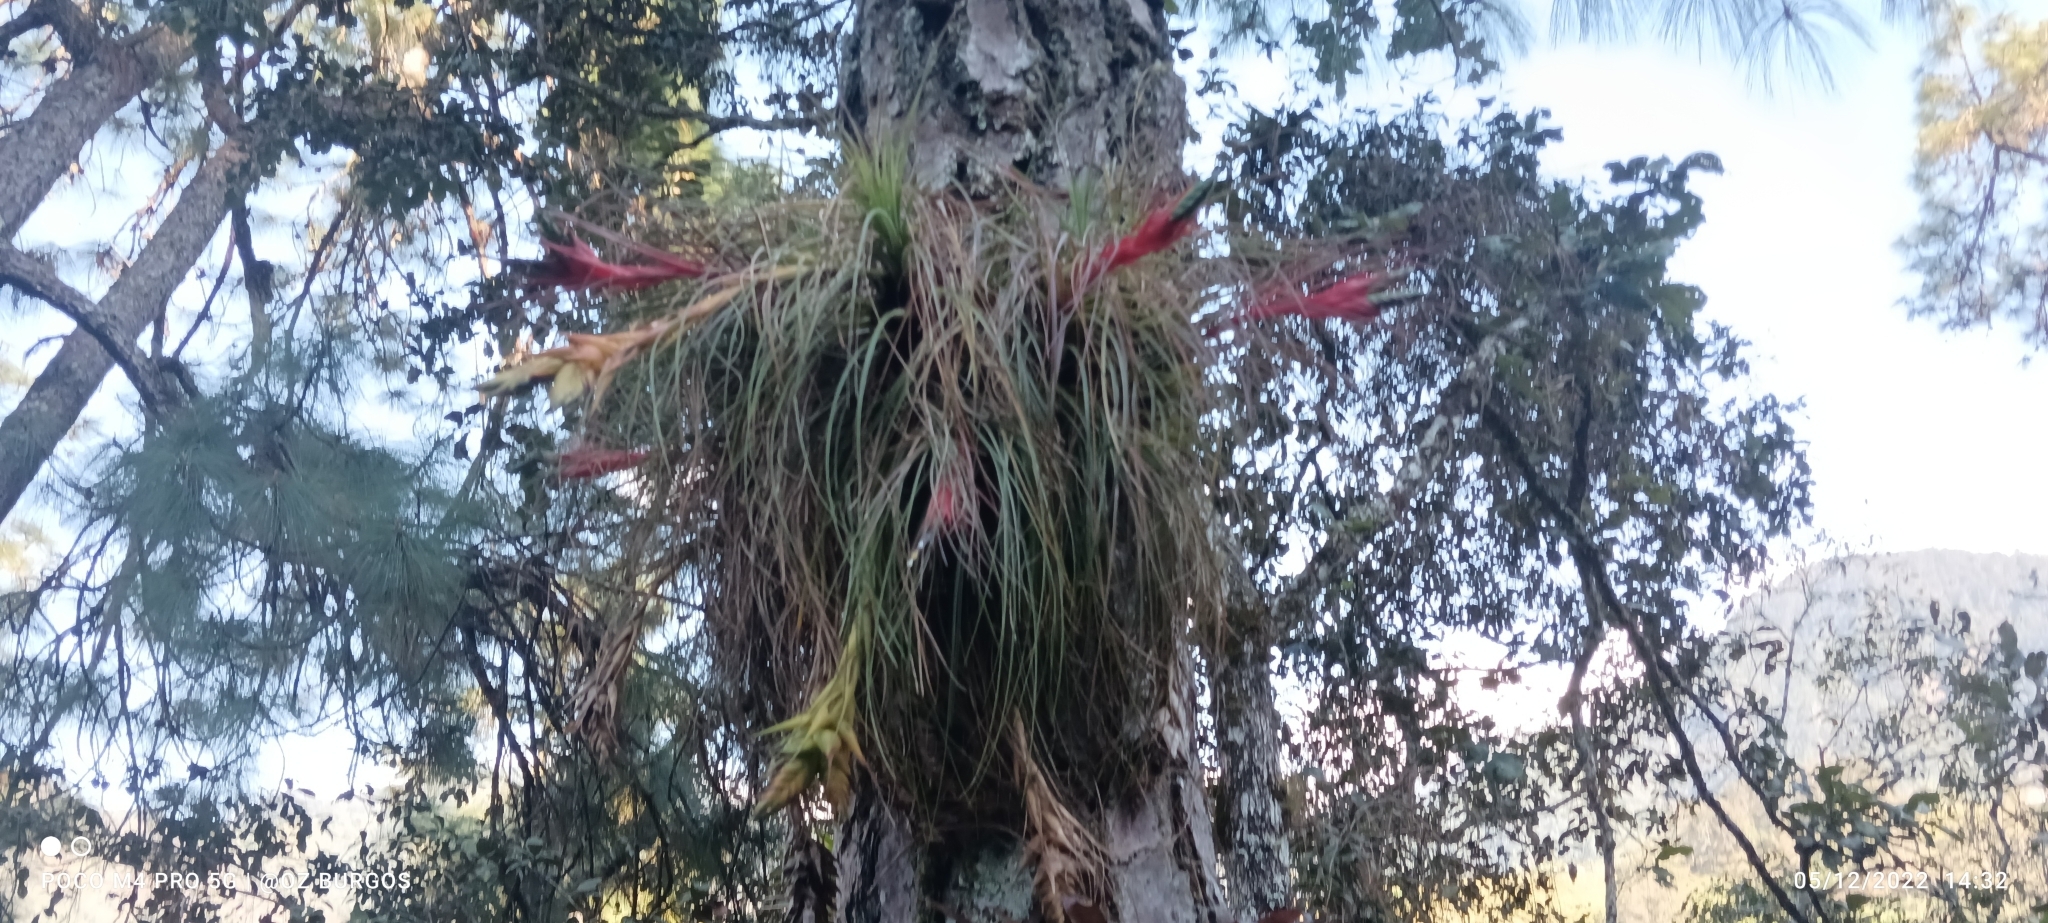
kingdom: Plantae
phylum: Tracheophyta
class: Liliopsida
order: Poales
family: Bromeliaceae
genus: Tillandsia
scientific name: Tillandsia punctulata
